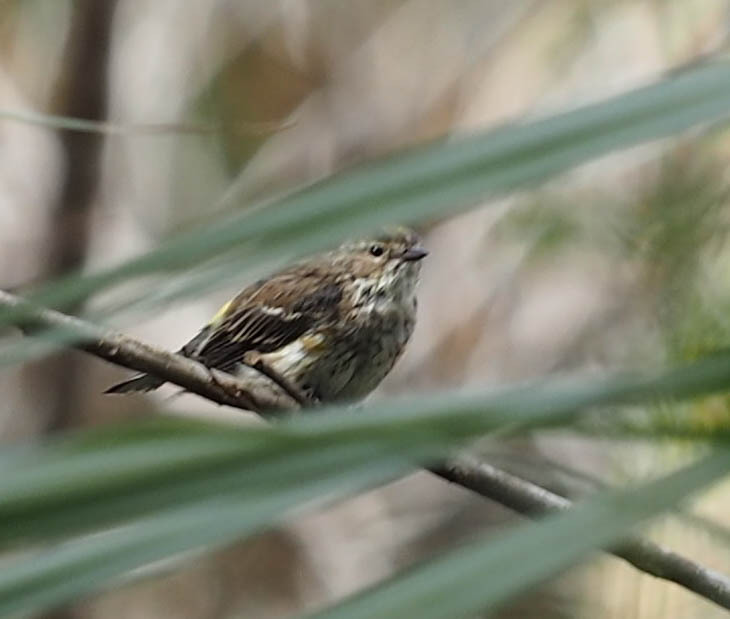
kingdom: Animalia
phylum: Chordata
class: Aves
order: Passeriformes
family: Parulidae
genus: Setophaga
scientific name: Setophaga coronata
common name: Myrtle warbler
